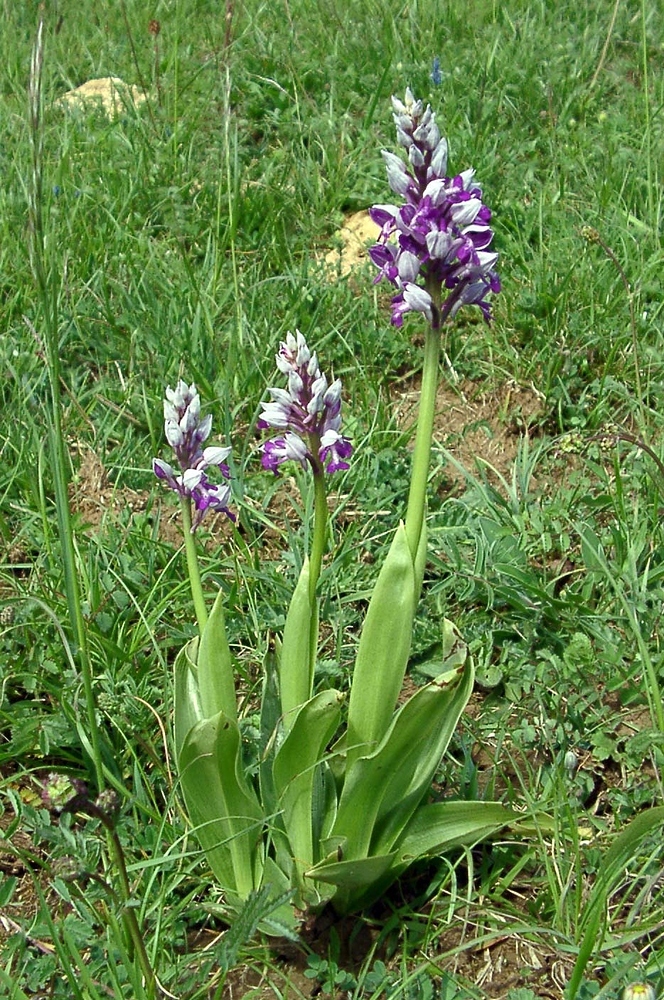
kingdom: Plantae
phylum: Tracheophyta
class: Liliopsida
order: Asparagales
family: Orchidaceae
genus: Orchis
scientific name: Orchis militaris
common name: Military orchid
